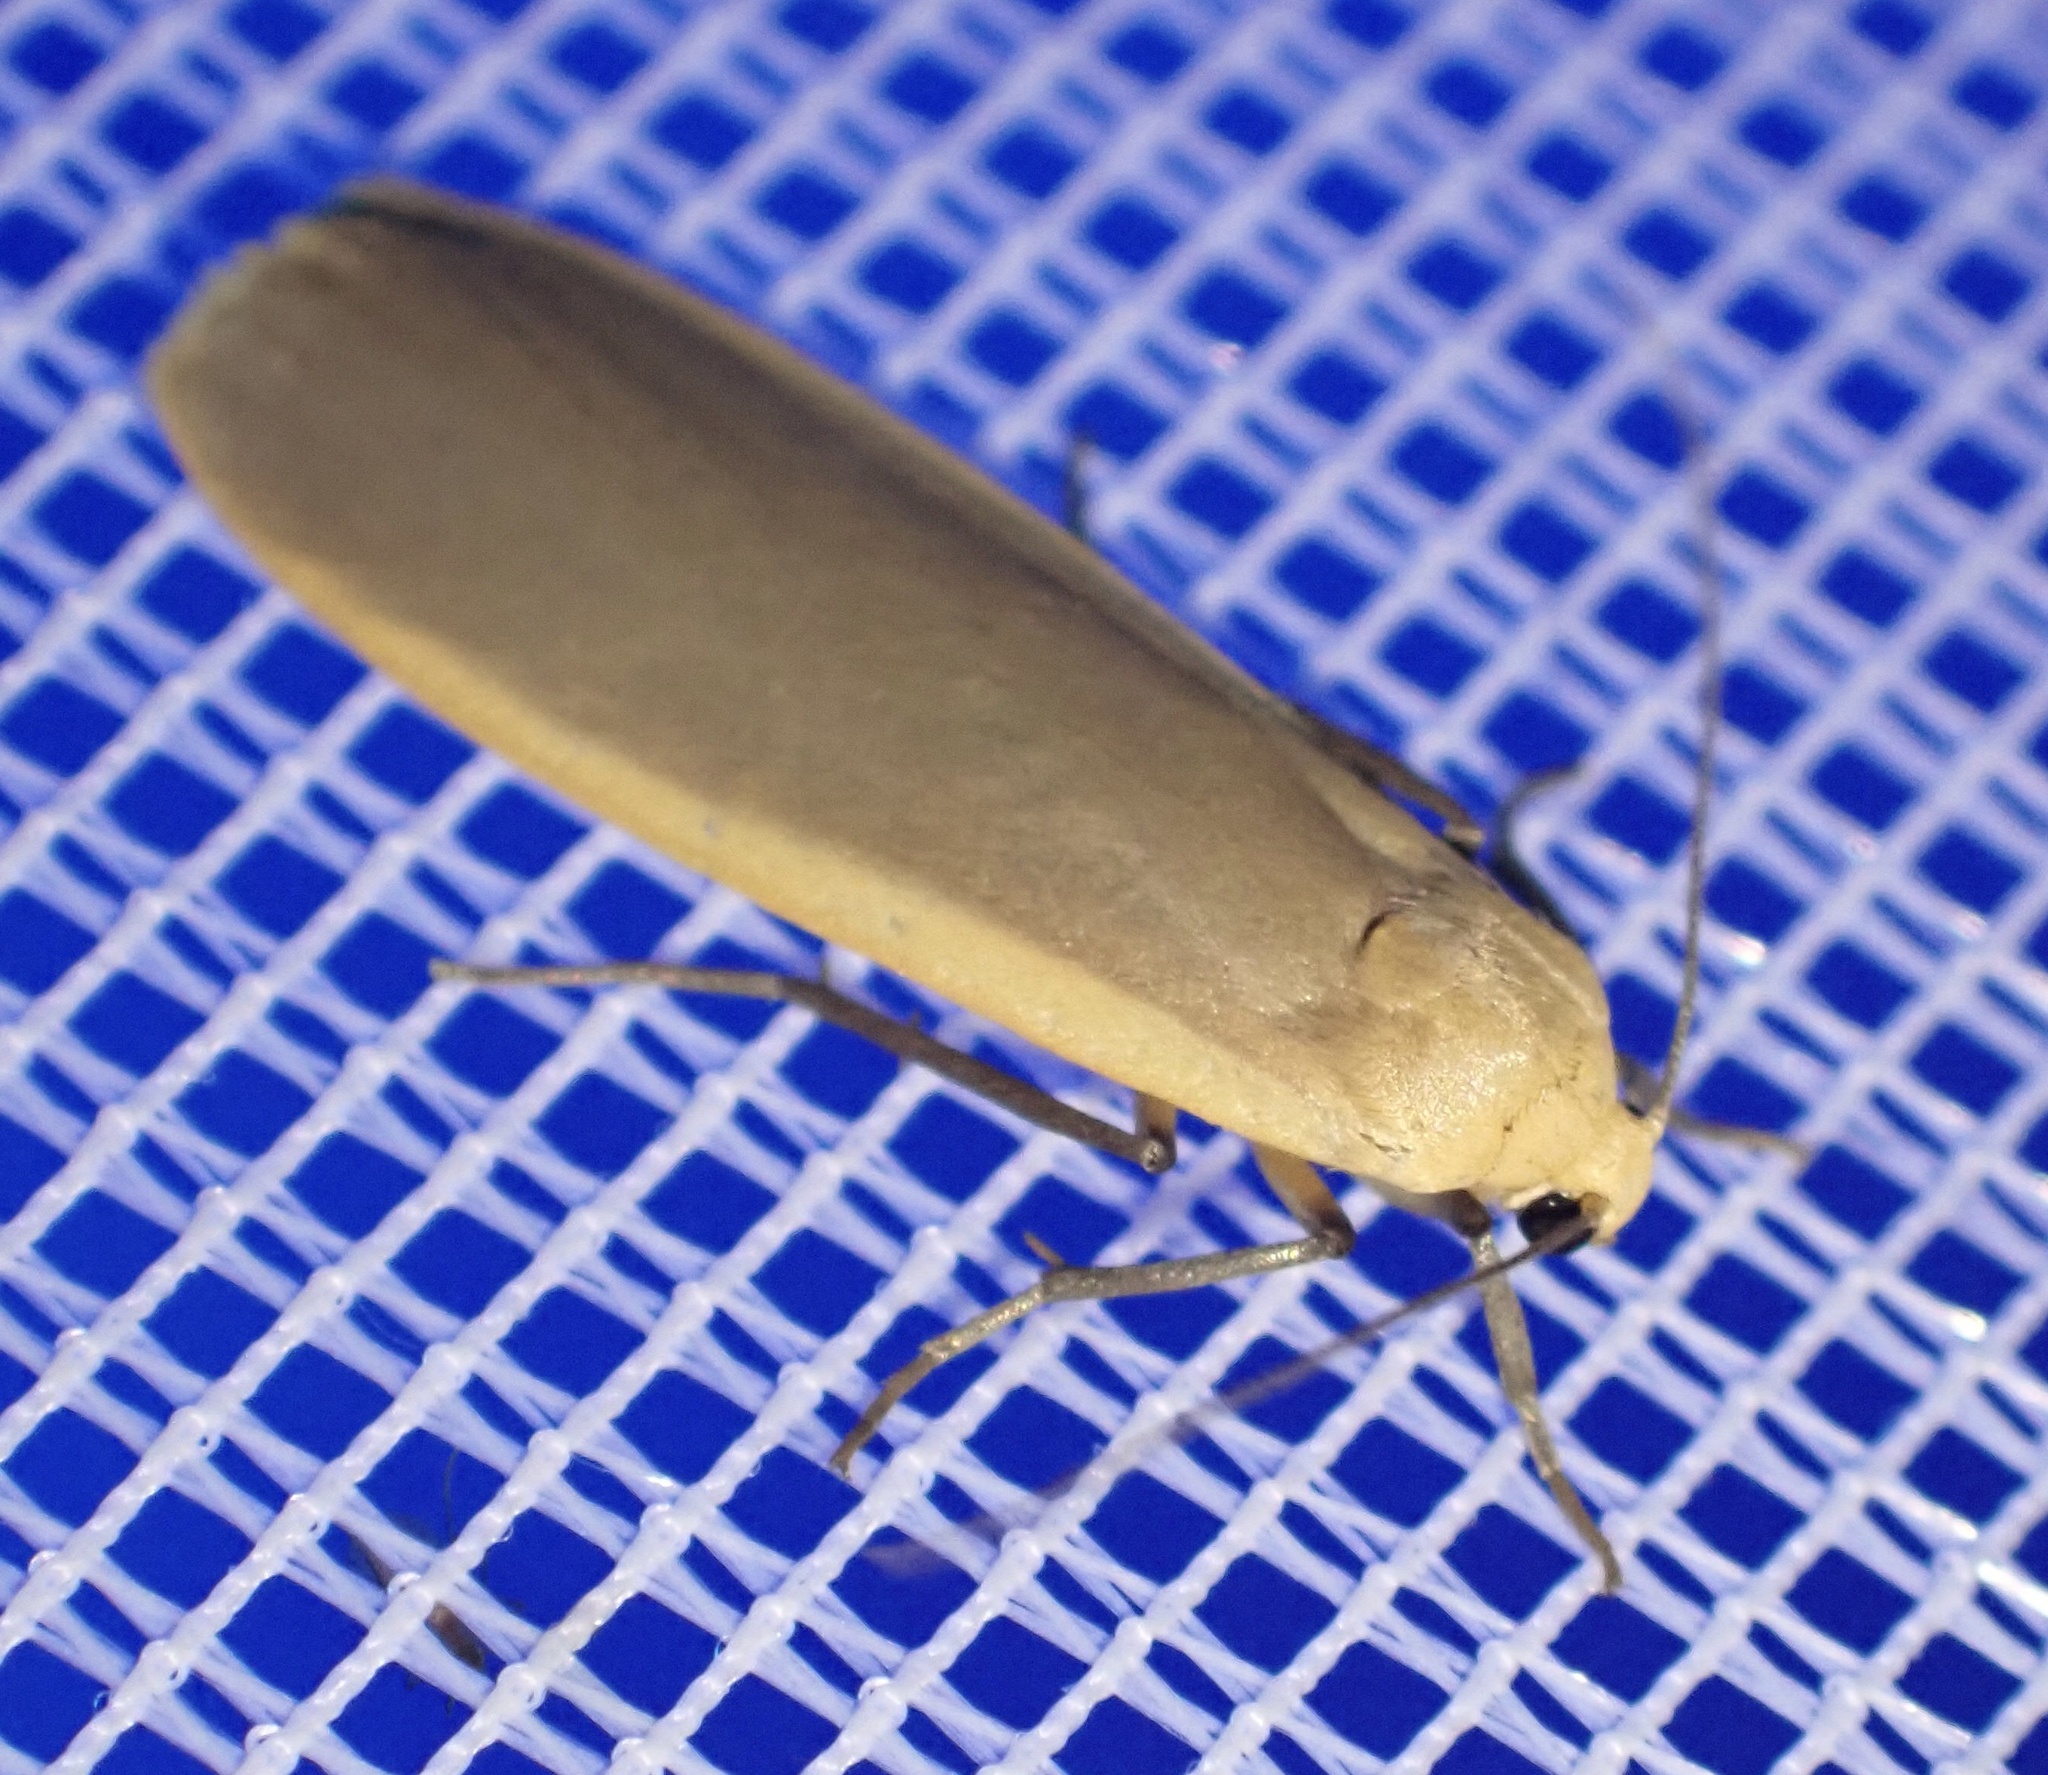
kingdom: Animalia
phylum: Arthropoda
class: Insecta
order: Lepidoptera
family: Erebidae
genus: Katha
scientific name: Katha depressa
